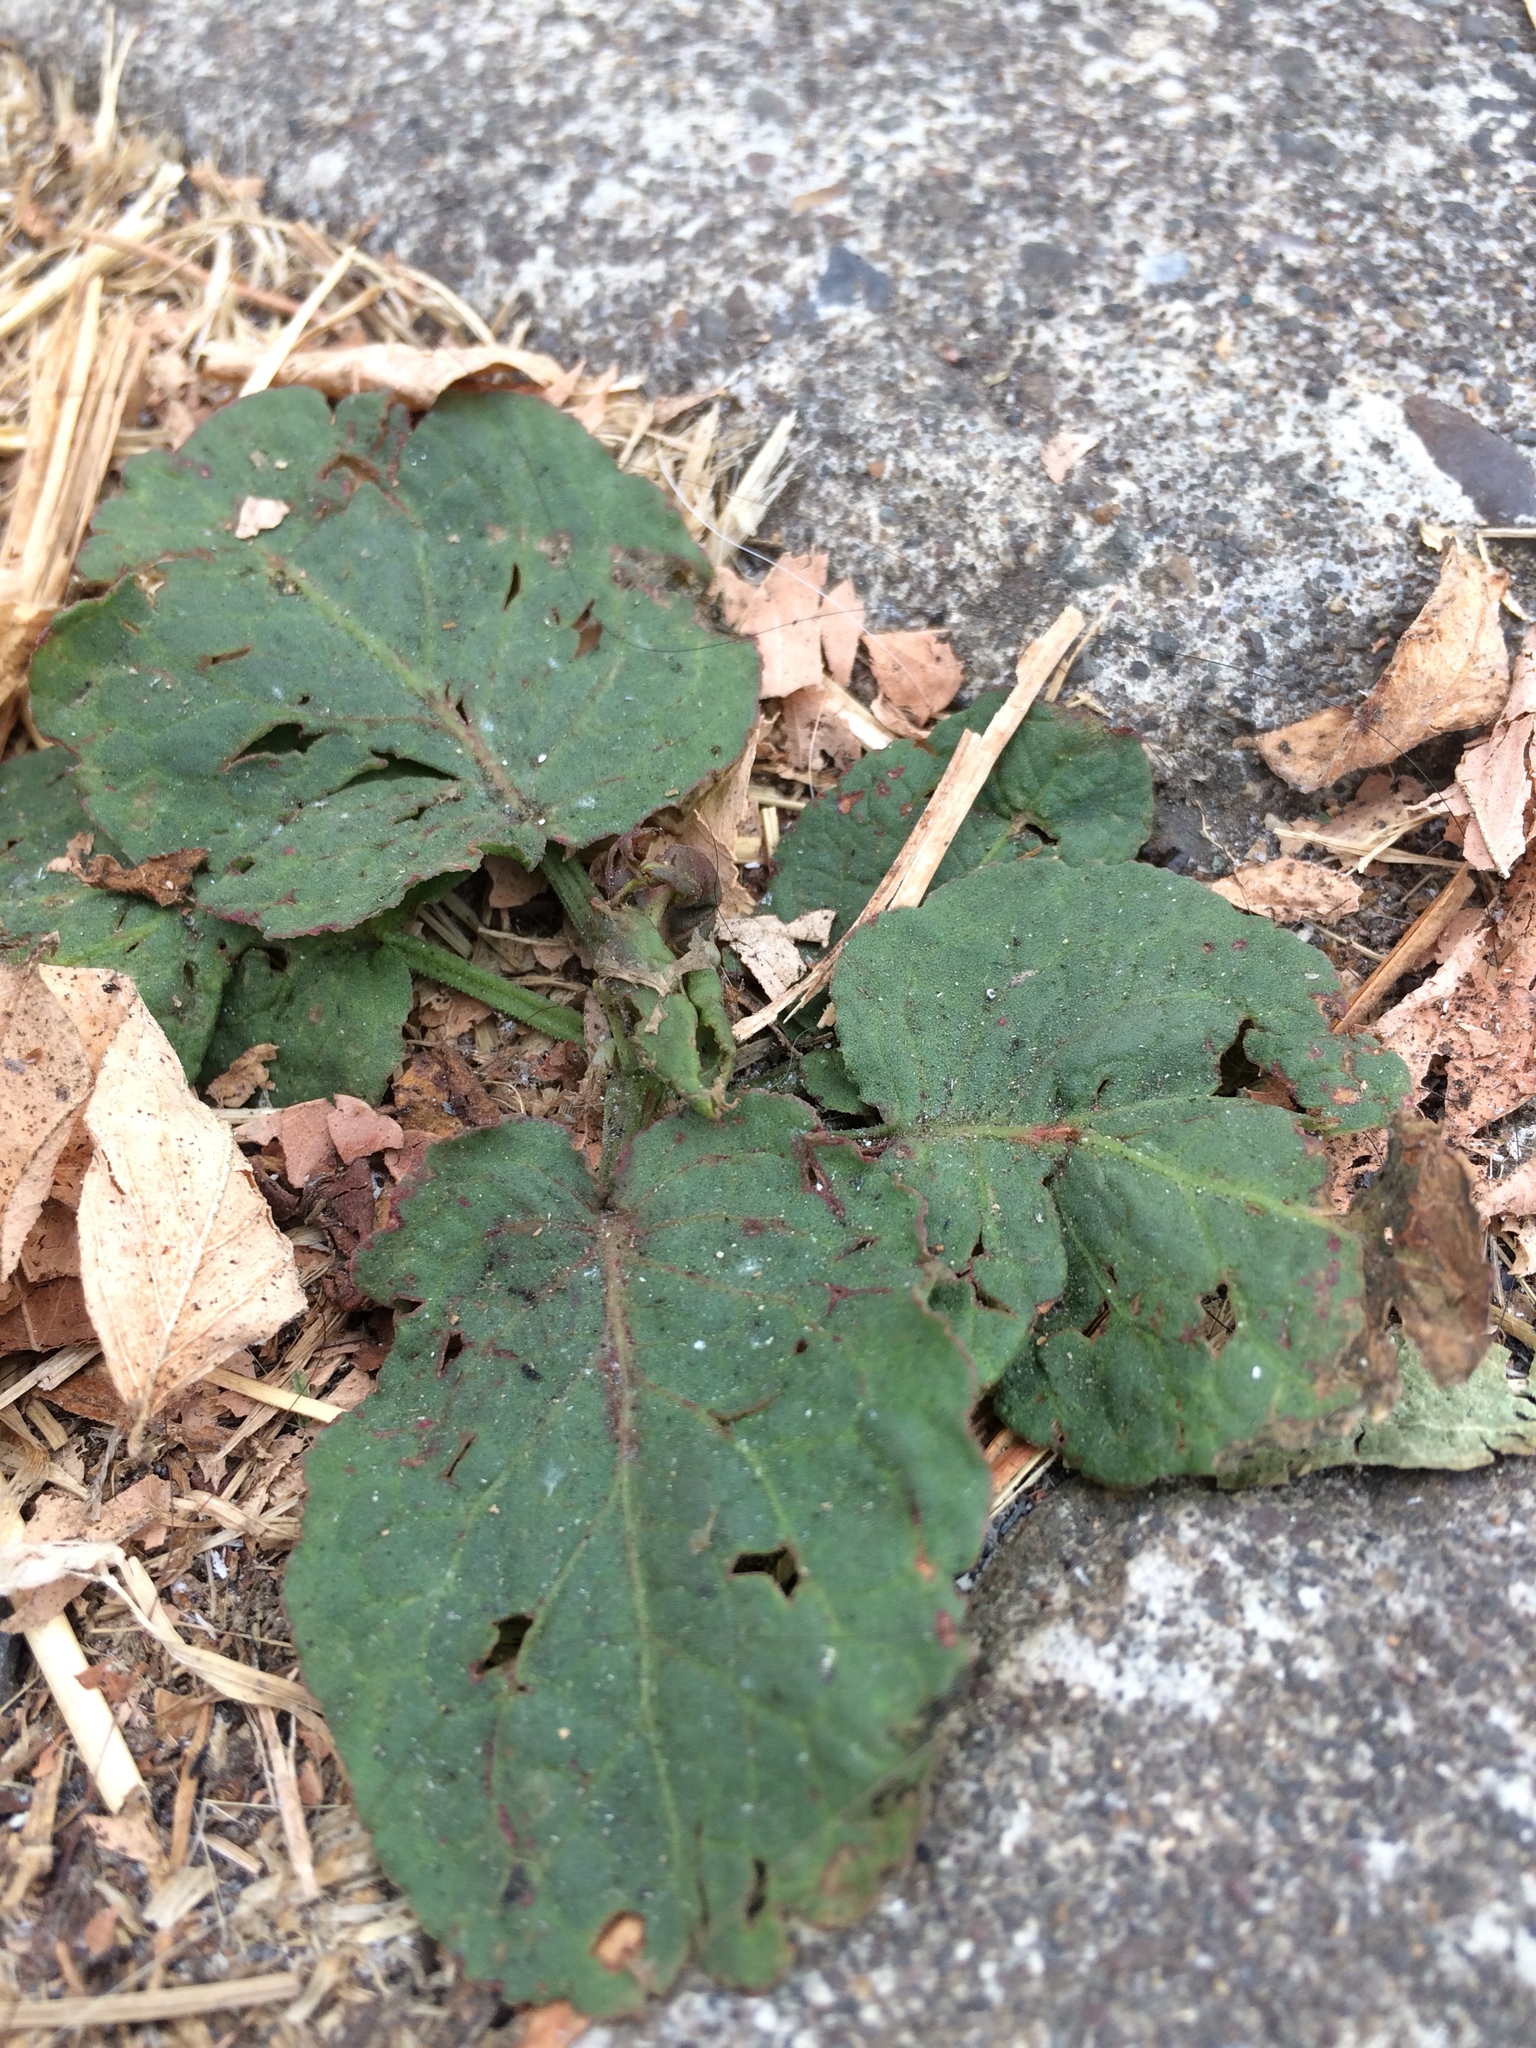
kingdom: Plantae
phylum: Tracheophyta
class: Magnoliopsida
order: Caryophyllales
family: Polygonaceae
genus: Rumex
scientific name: Rumex obtusifolius
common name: Bitter dock
